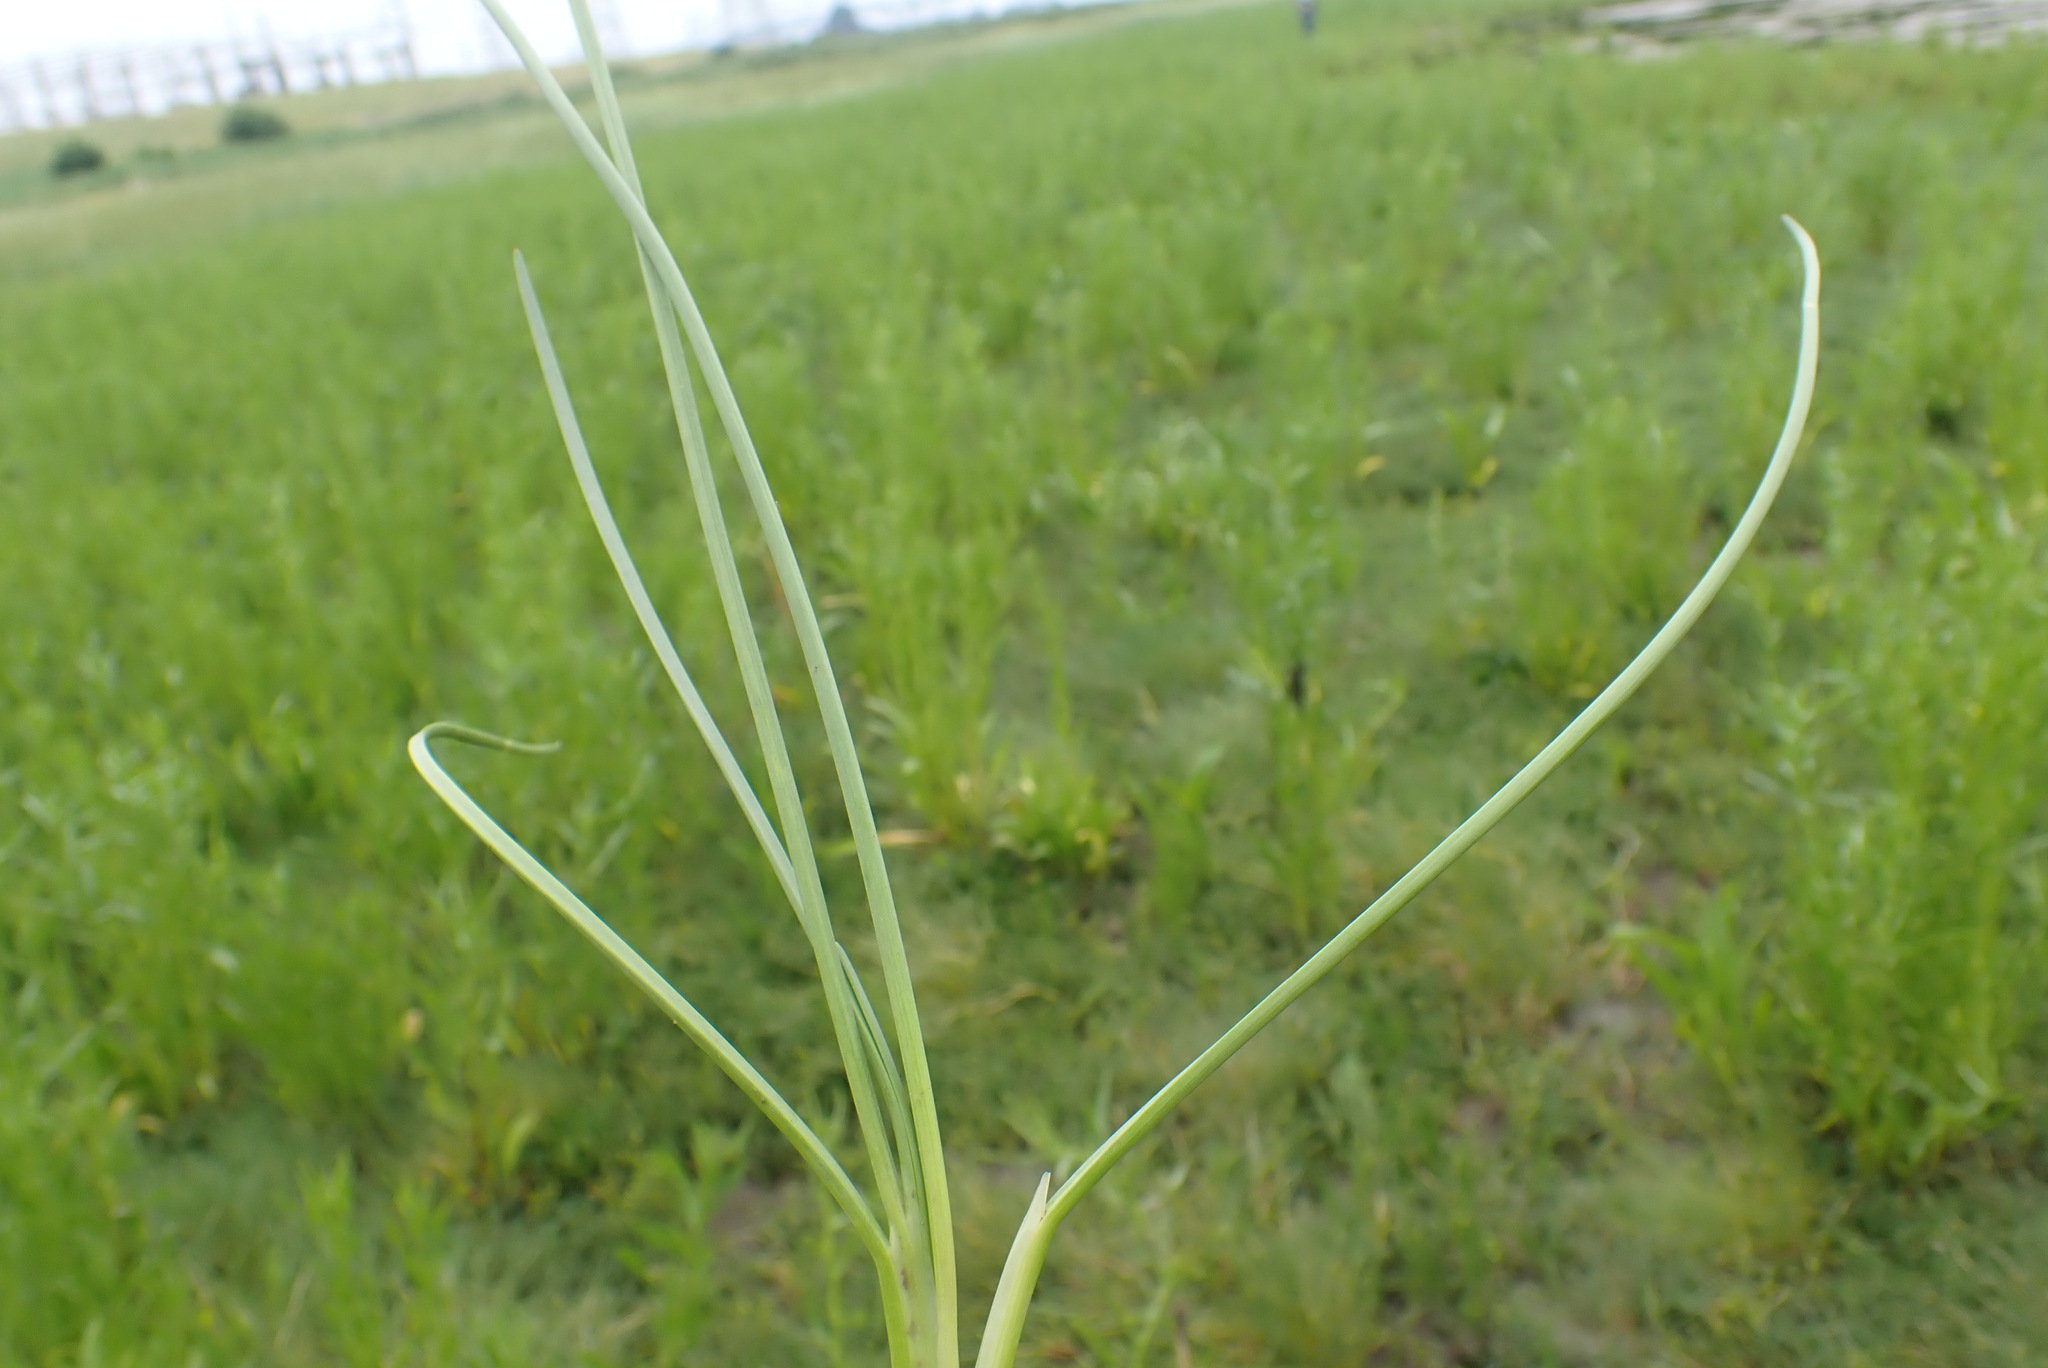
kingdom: Plantae
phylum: Tracheophyta
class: Liliopsida
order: Alismatales
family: Juncaginaceae
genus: Triglochin
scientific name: Triglochin maritima
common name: Sea arrowgrass
